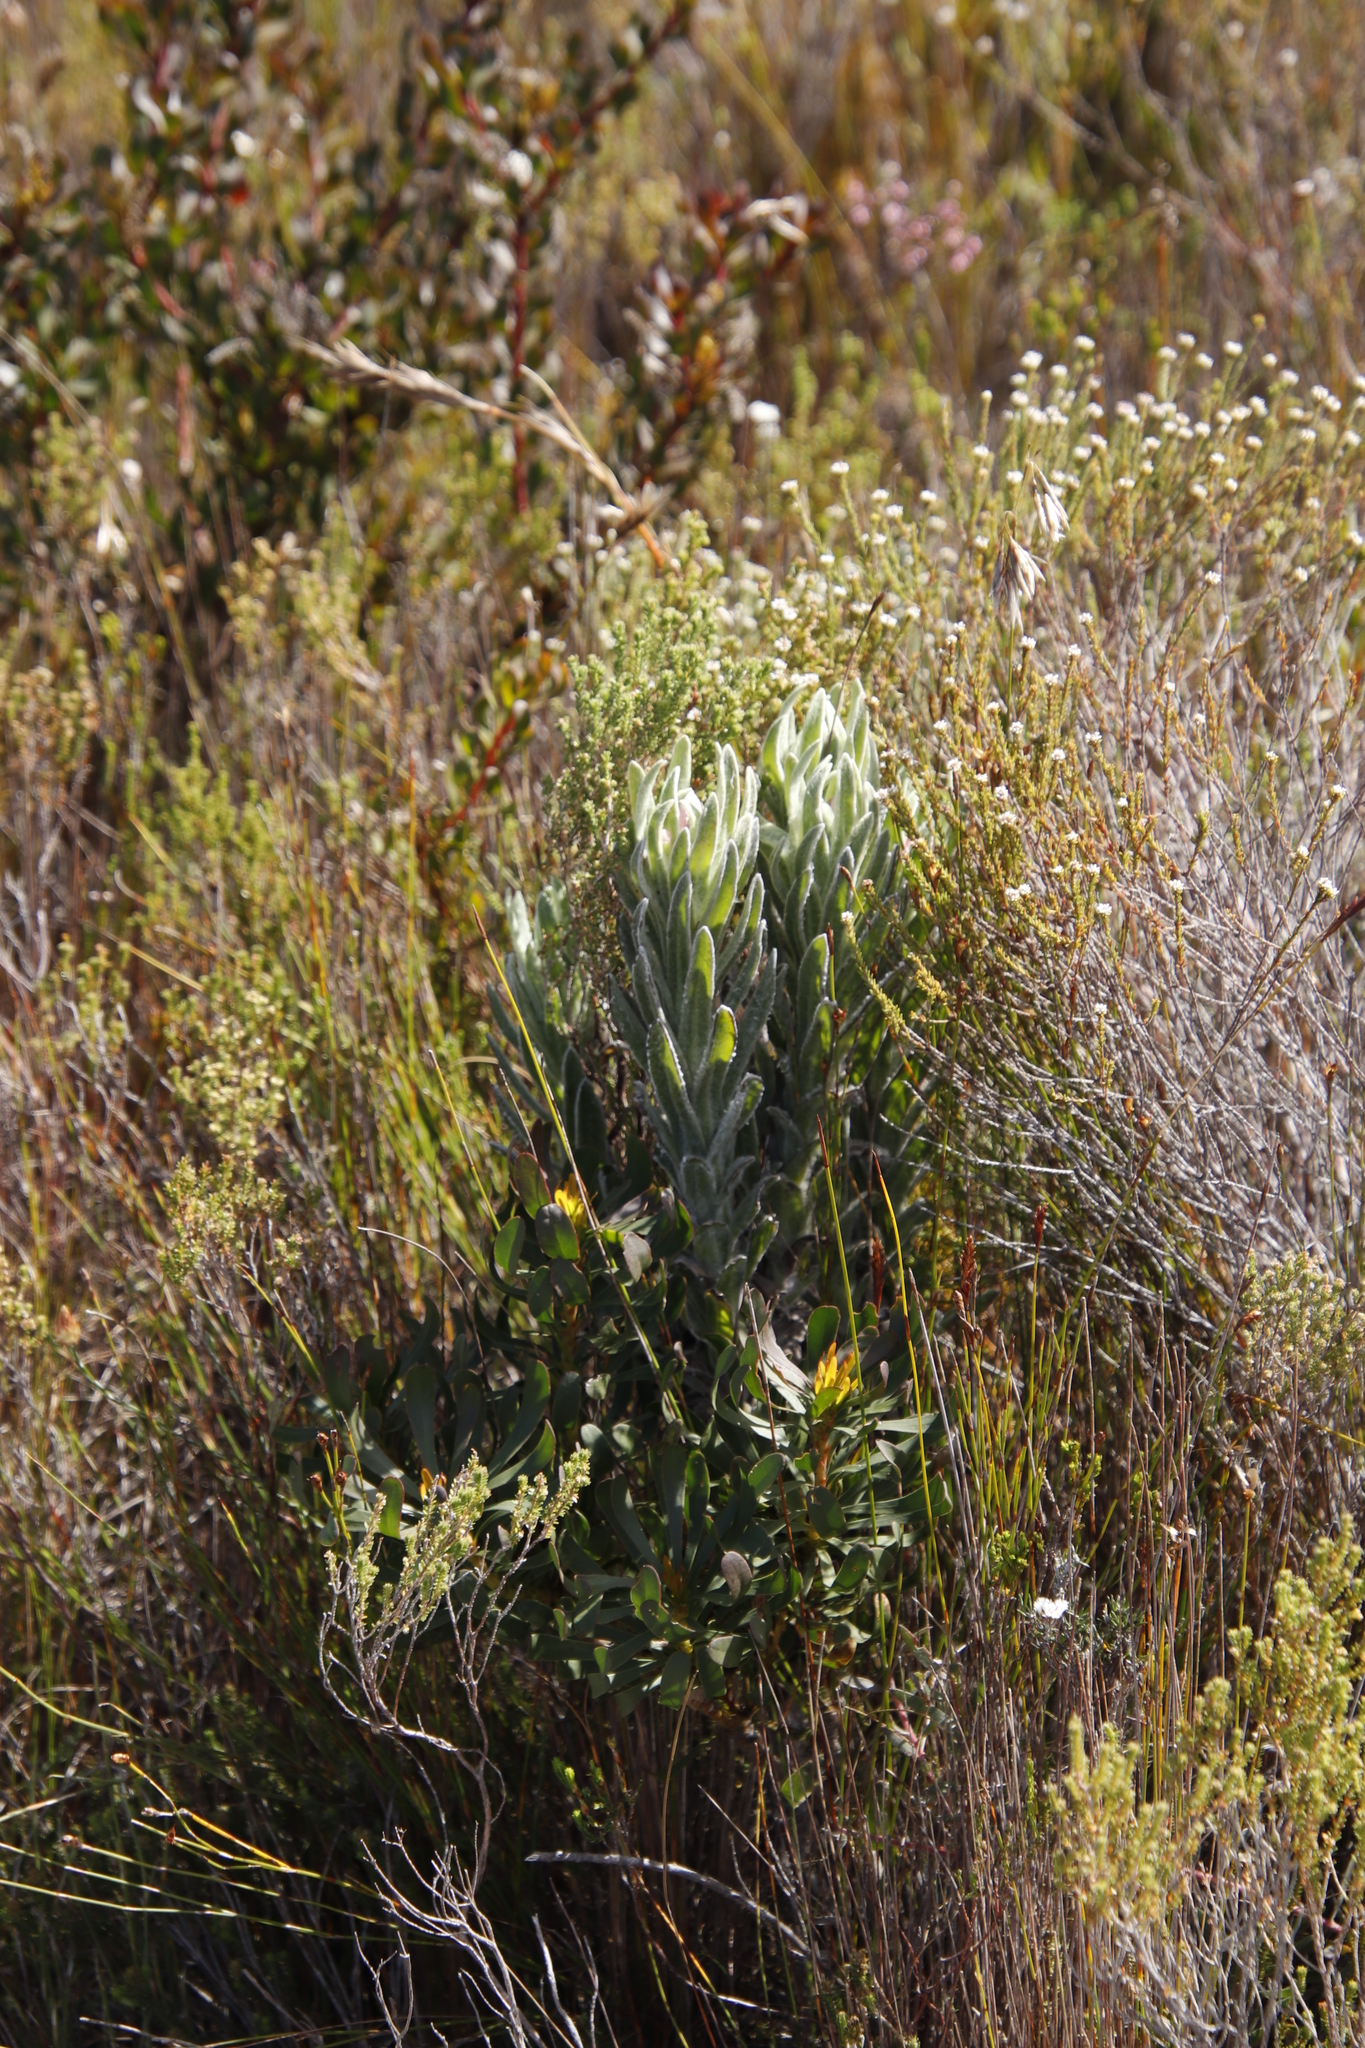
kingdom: Plantae
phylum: Tracheophyta
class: Magnoliopsida
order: Asterales
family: Asteraceae
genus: Syncarpha
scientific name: Syncarpha vestita
